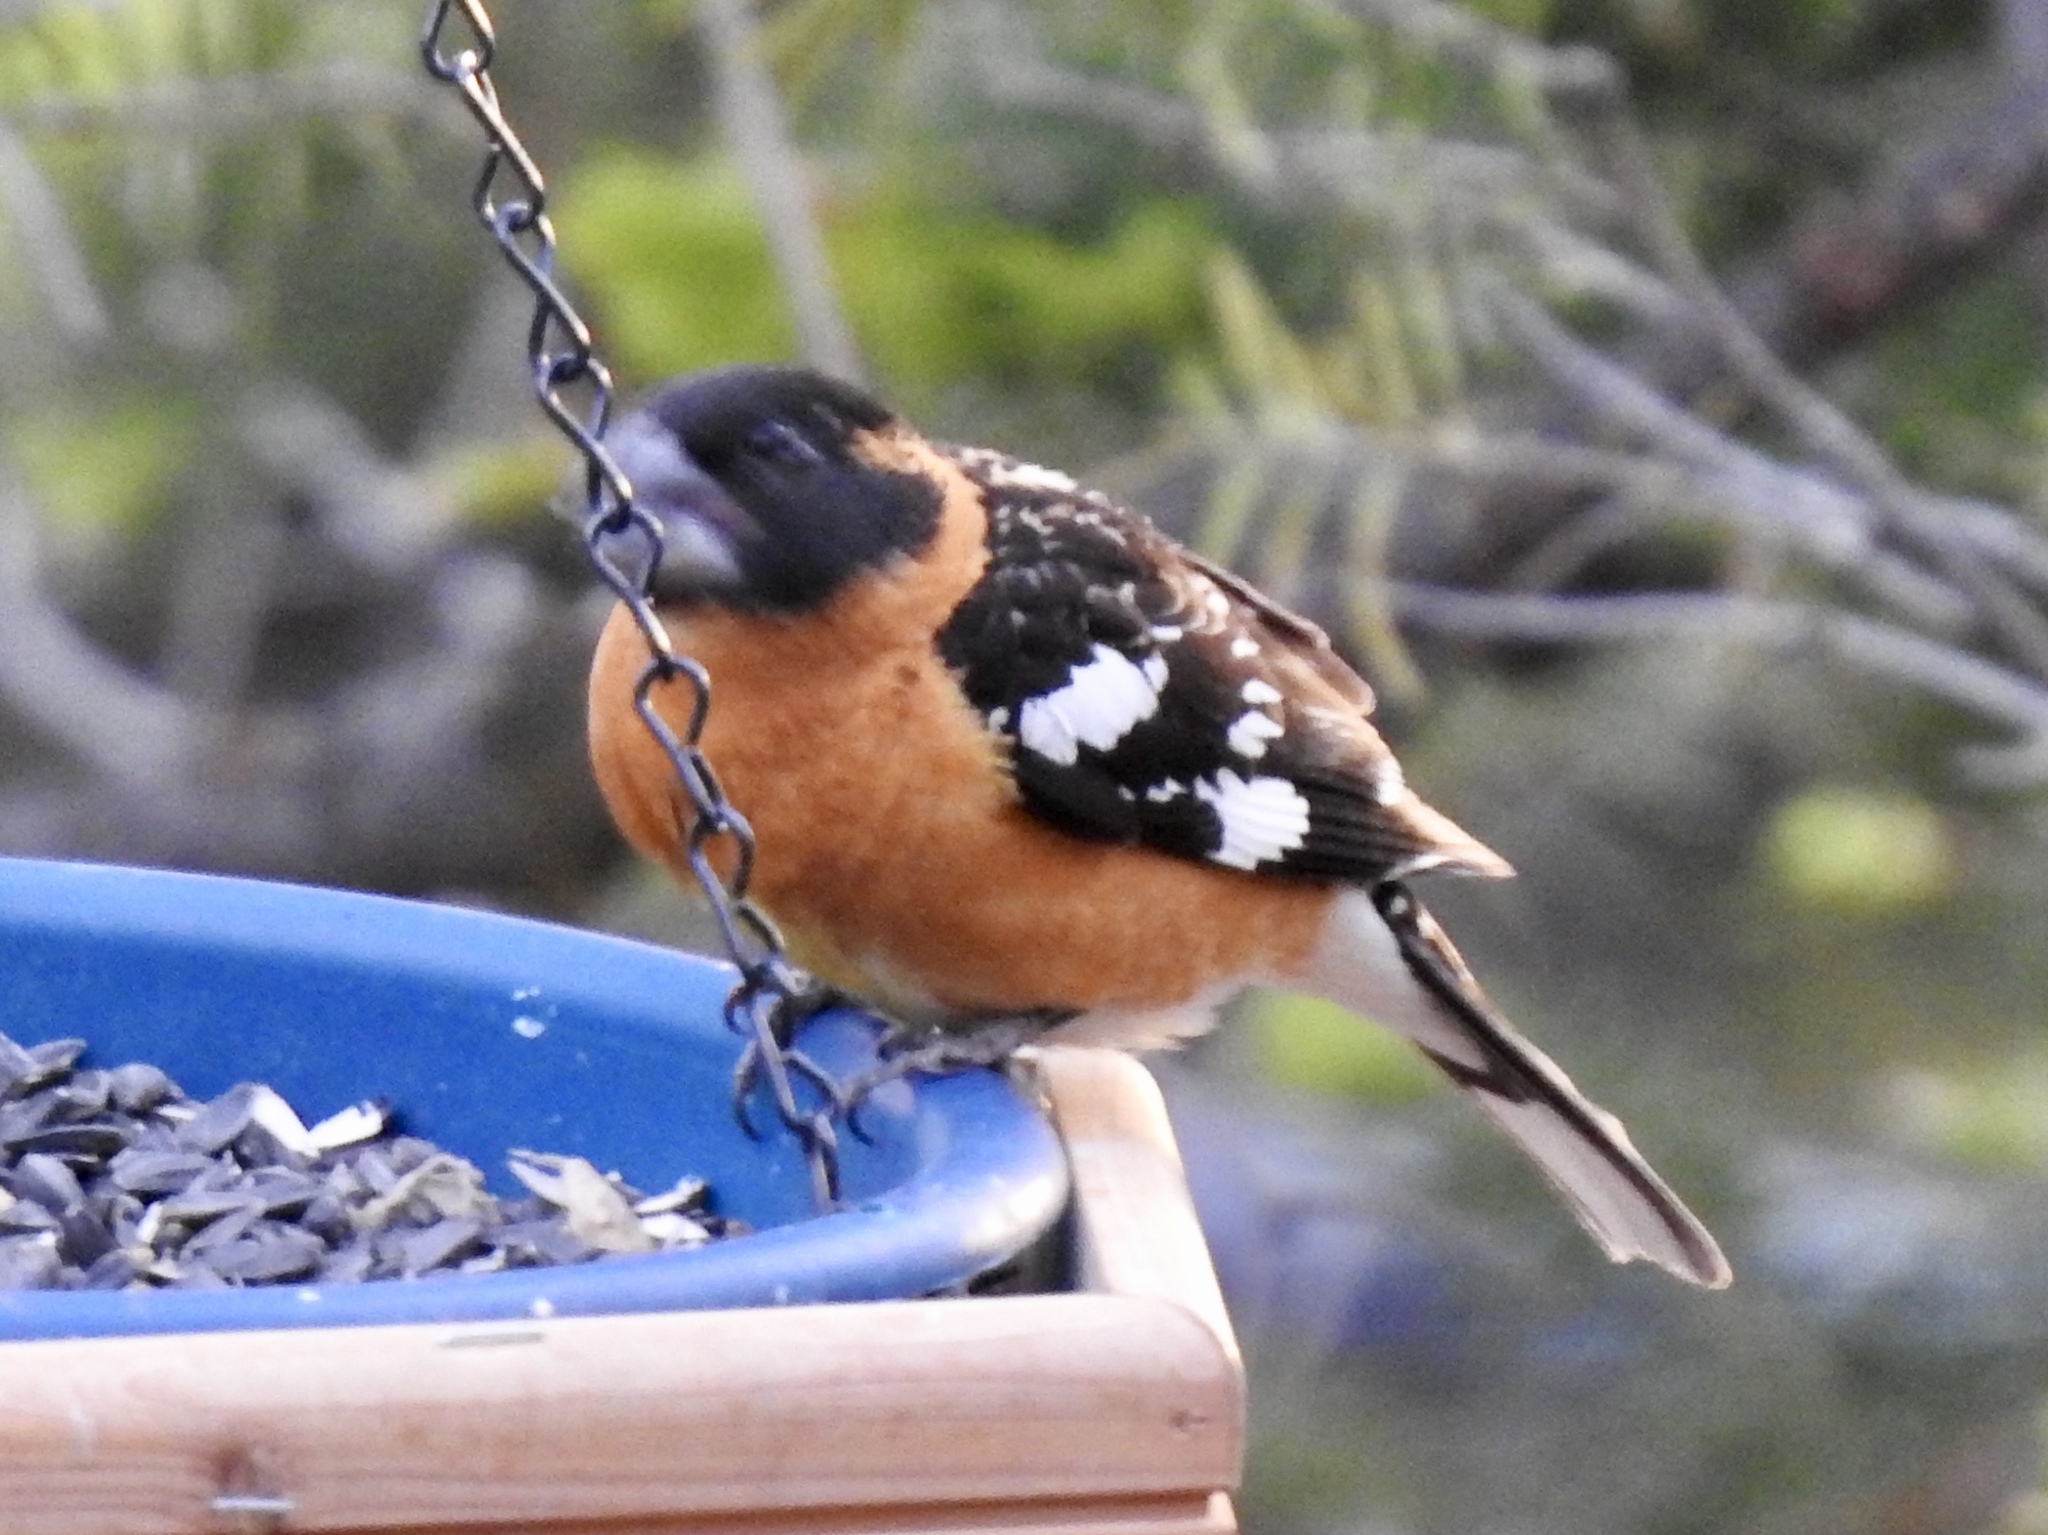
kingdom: Animalia
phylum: Chordata
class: Aves
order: Passeriformes
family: Cardinalidae
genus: Pheucticus
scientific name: Pheucticus melanocephalus
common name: Black-headed grosbeak
